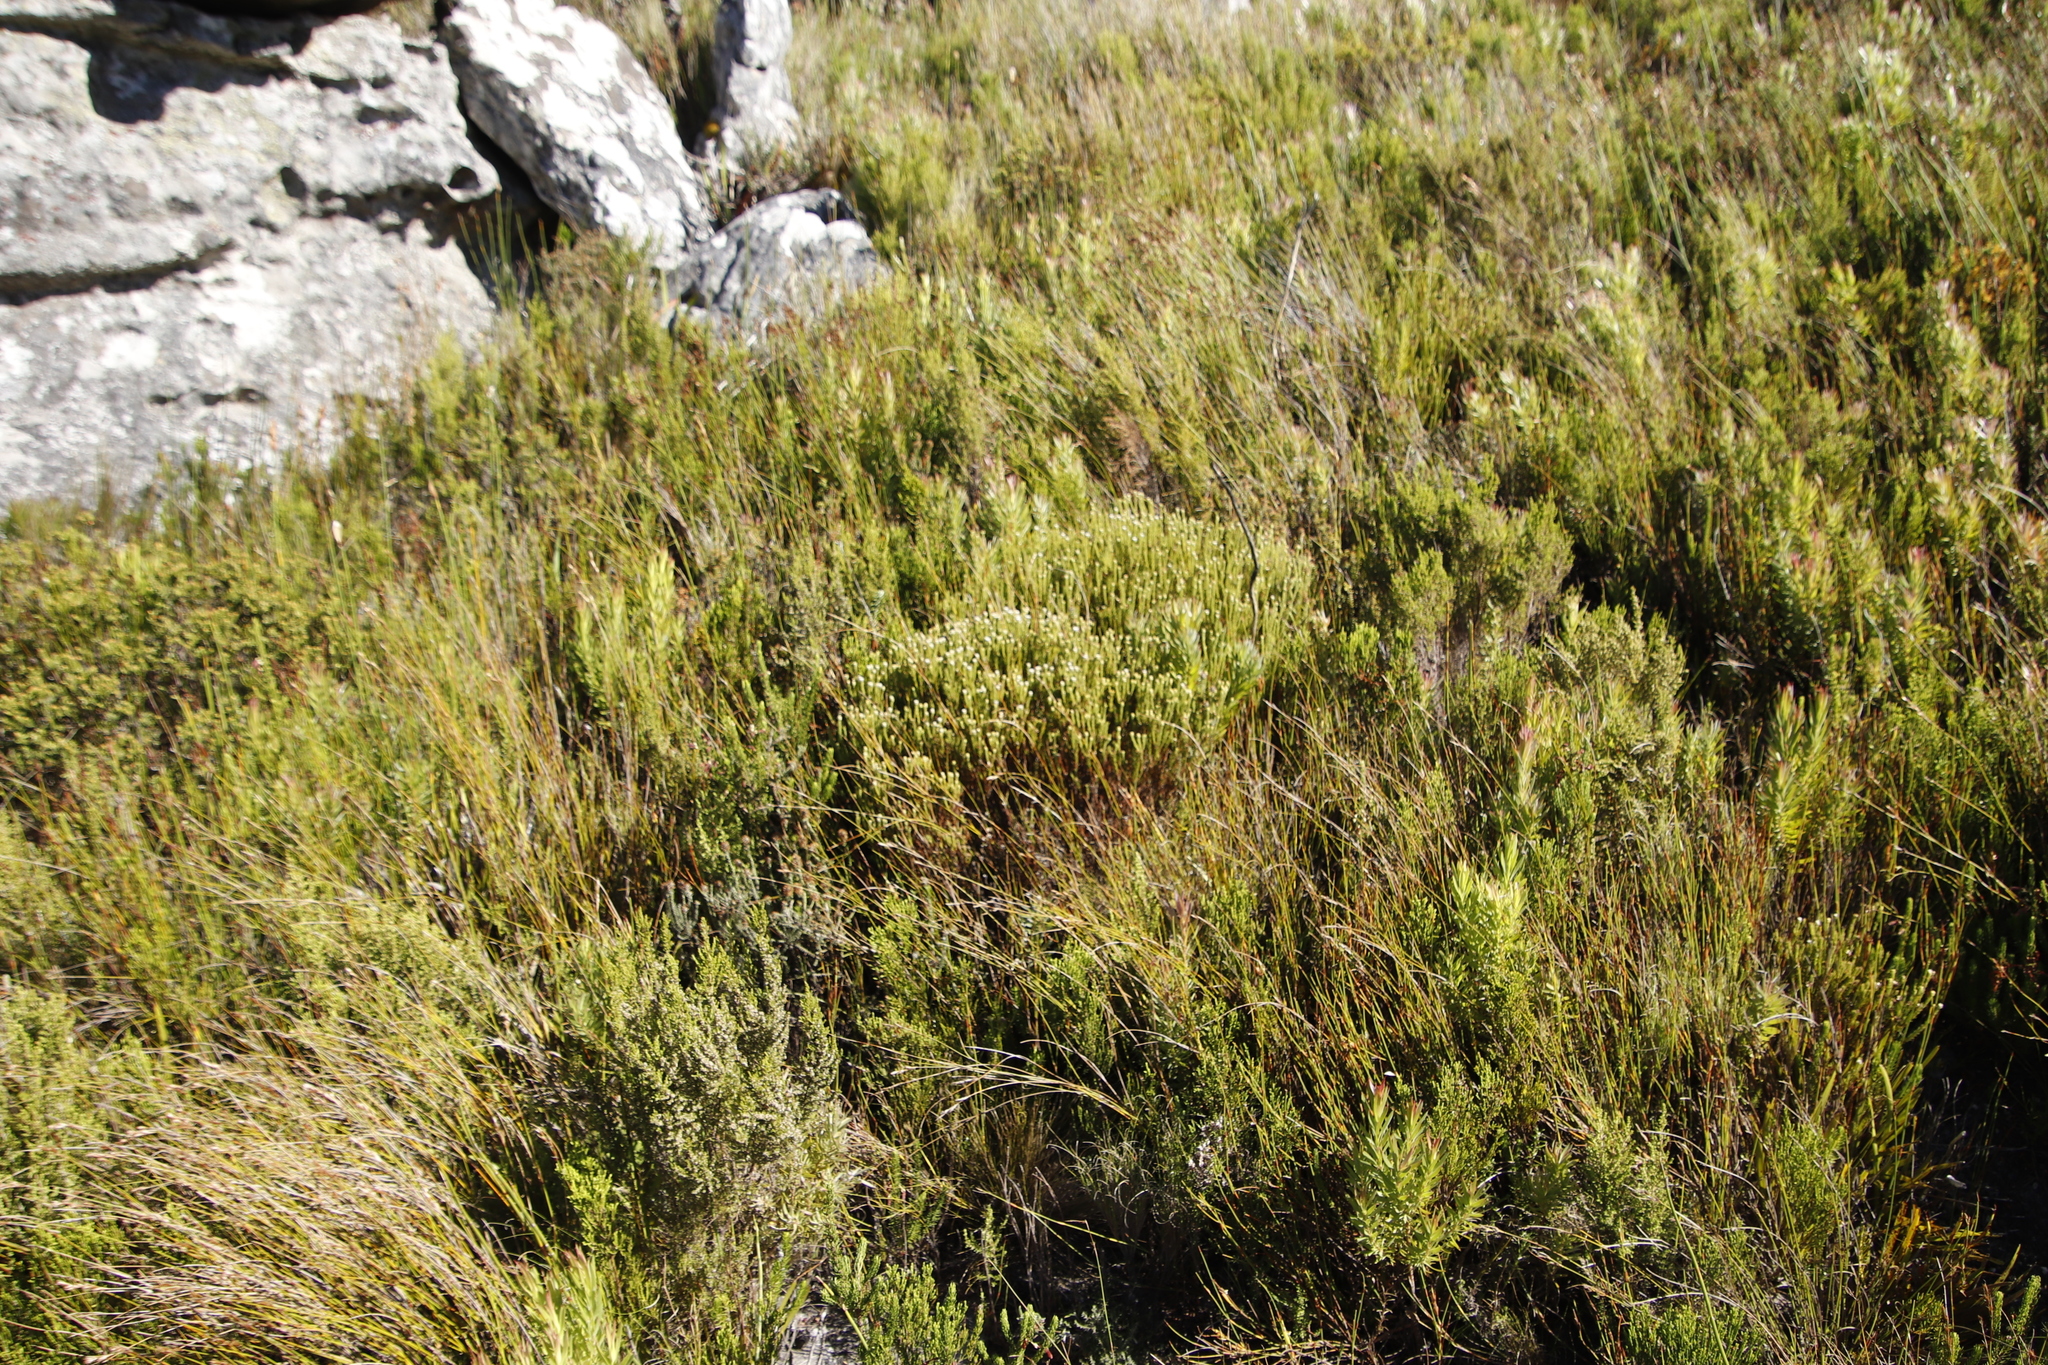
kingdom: Plantae
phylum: Tracheophyta
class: Magnoliopsida
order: Bruniales
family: Bruniaceae
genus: Staavia
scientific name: Staavia radiata
